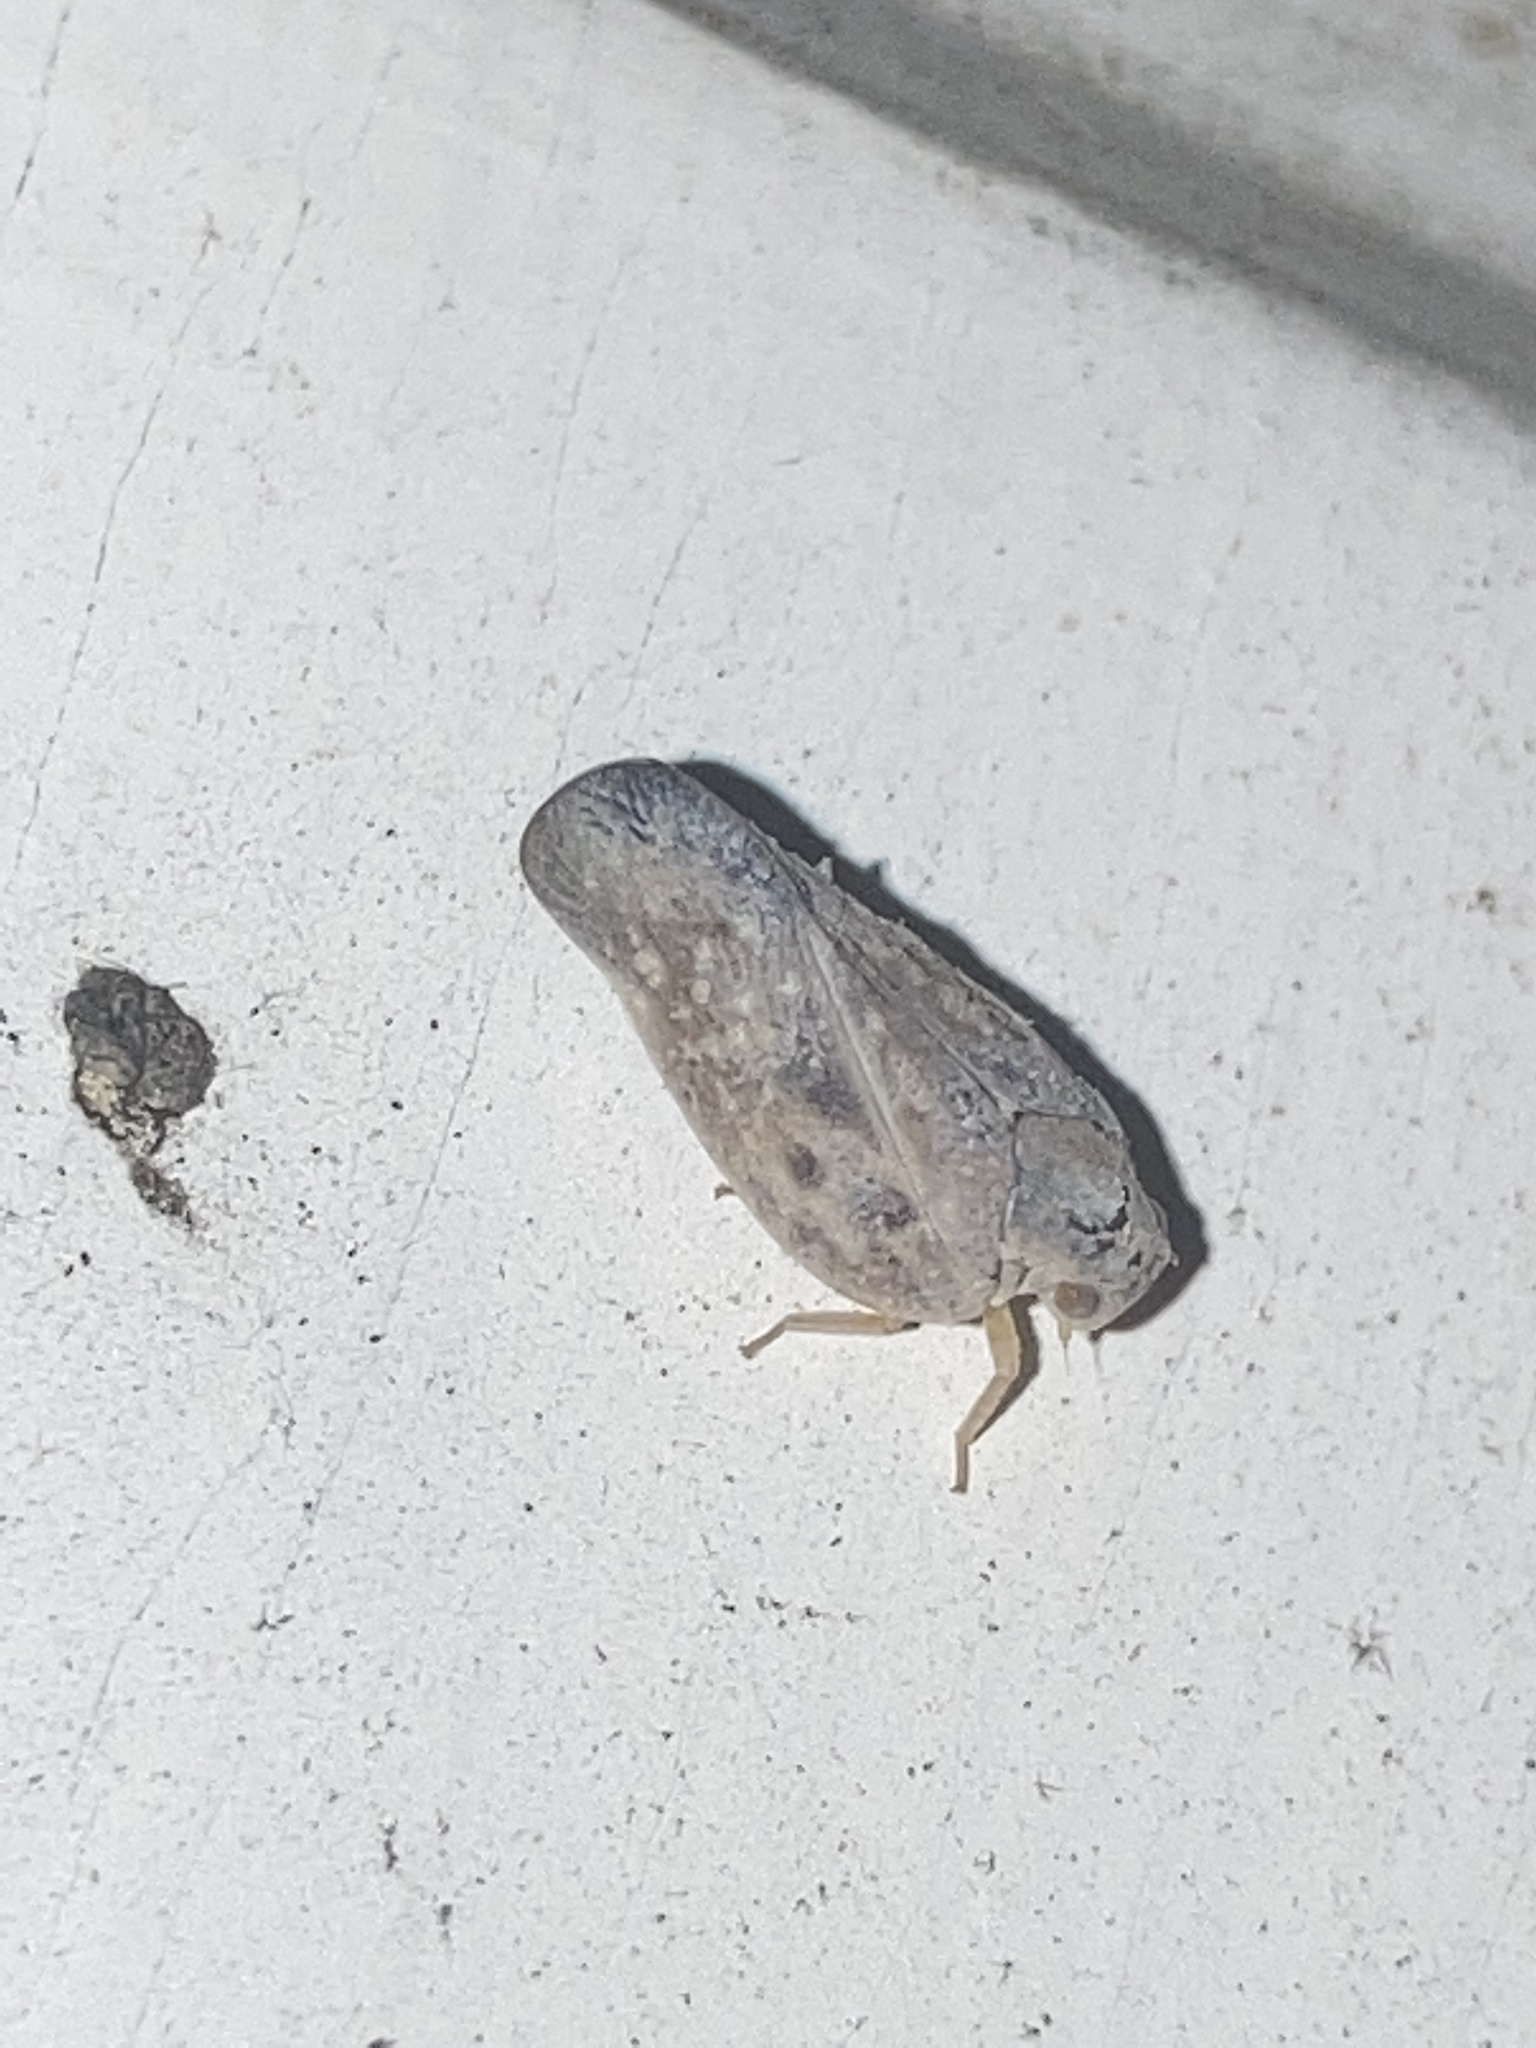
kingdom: Animalia
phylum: Arthropoda
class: Insecta
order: Hemiptera
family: Flatidae
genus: Metcalfa
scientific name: Metcalfa pruinosa
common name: Citrus flatid planthopper
